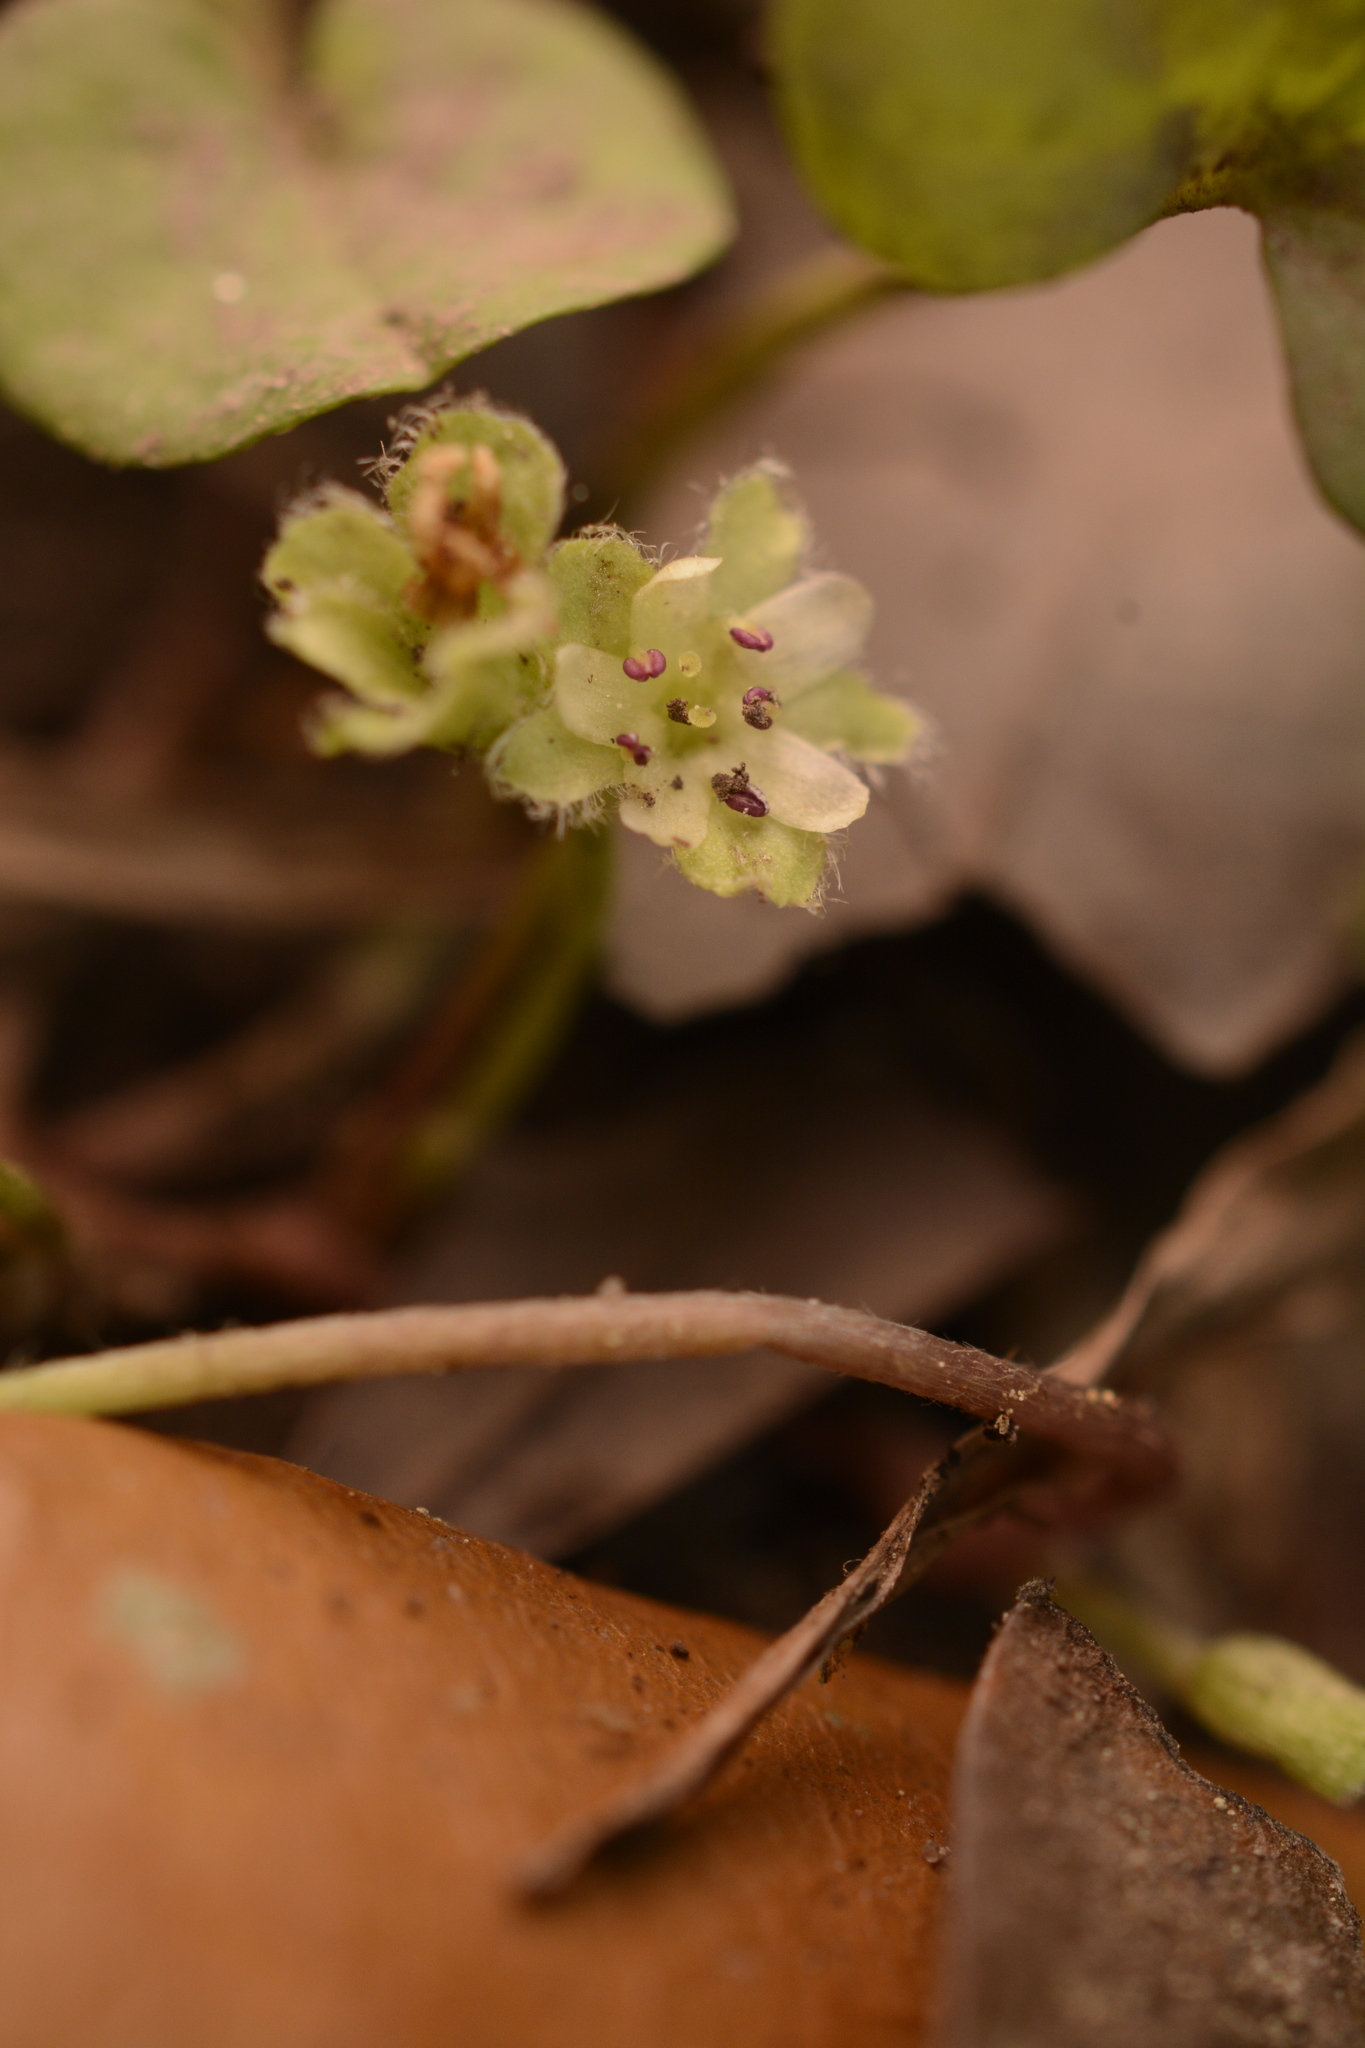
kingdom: Plantae
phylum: Tracheophyta
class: Magnoliopsida
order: Solanales
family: Convolvulaceae
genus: Dichondra
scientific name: Dichondra carolinensis
